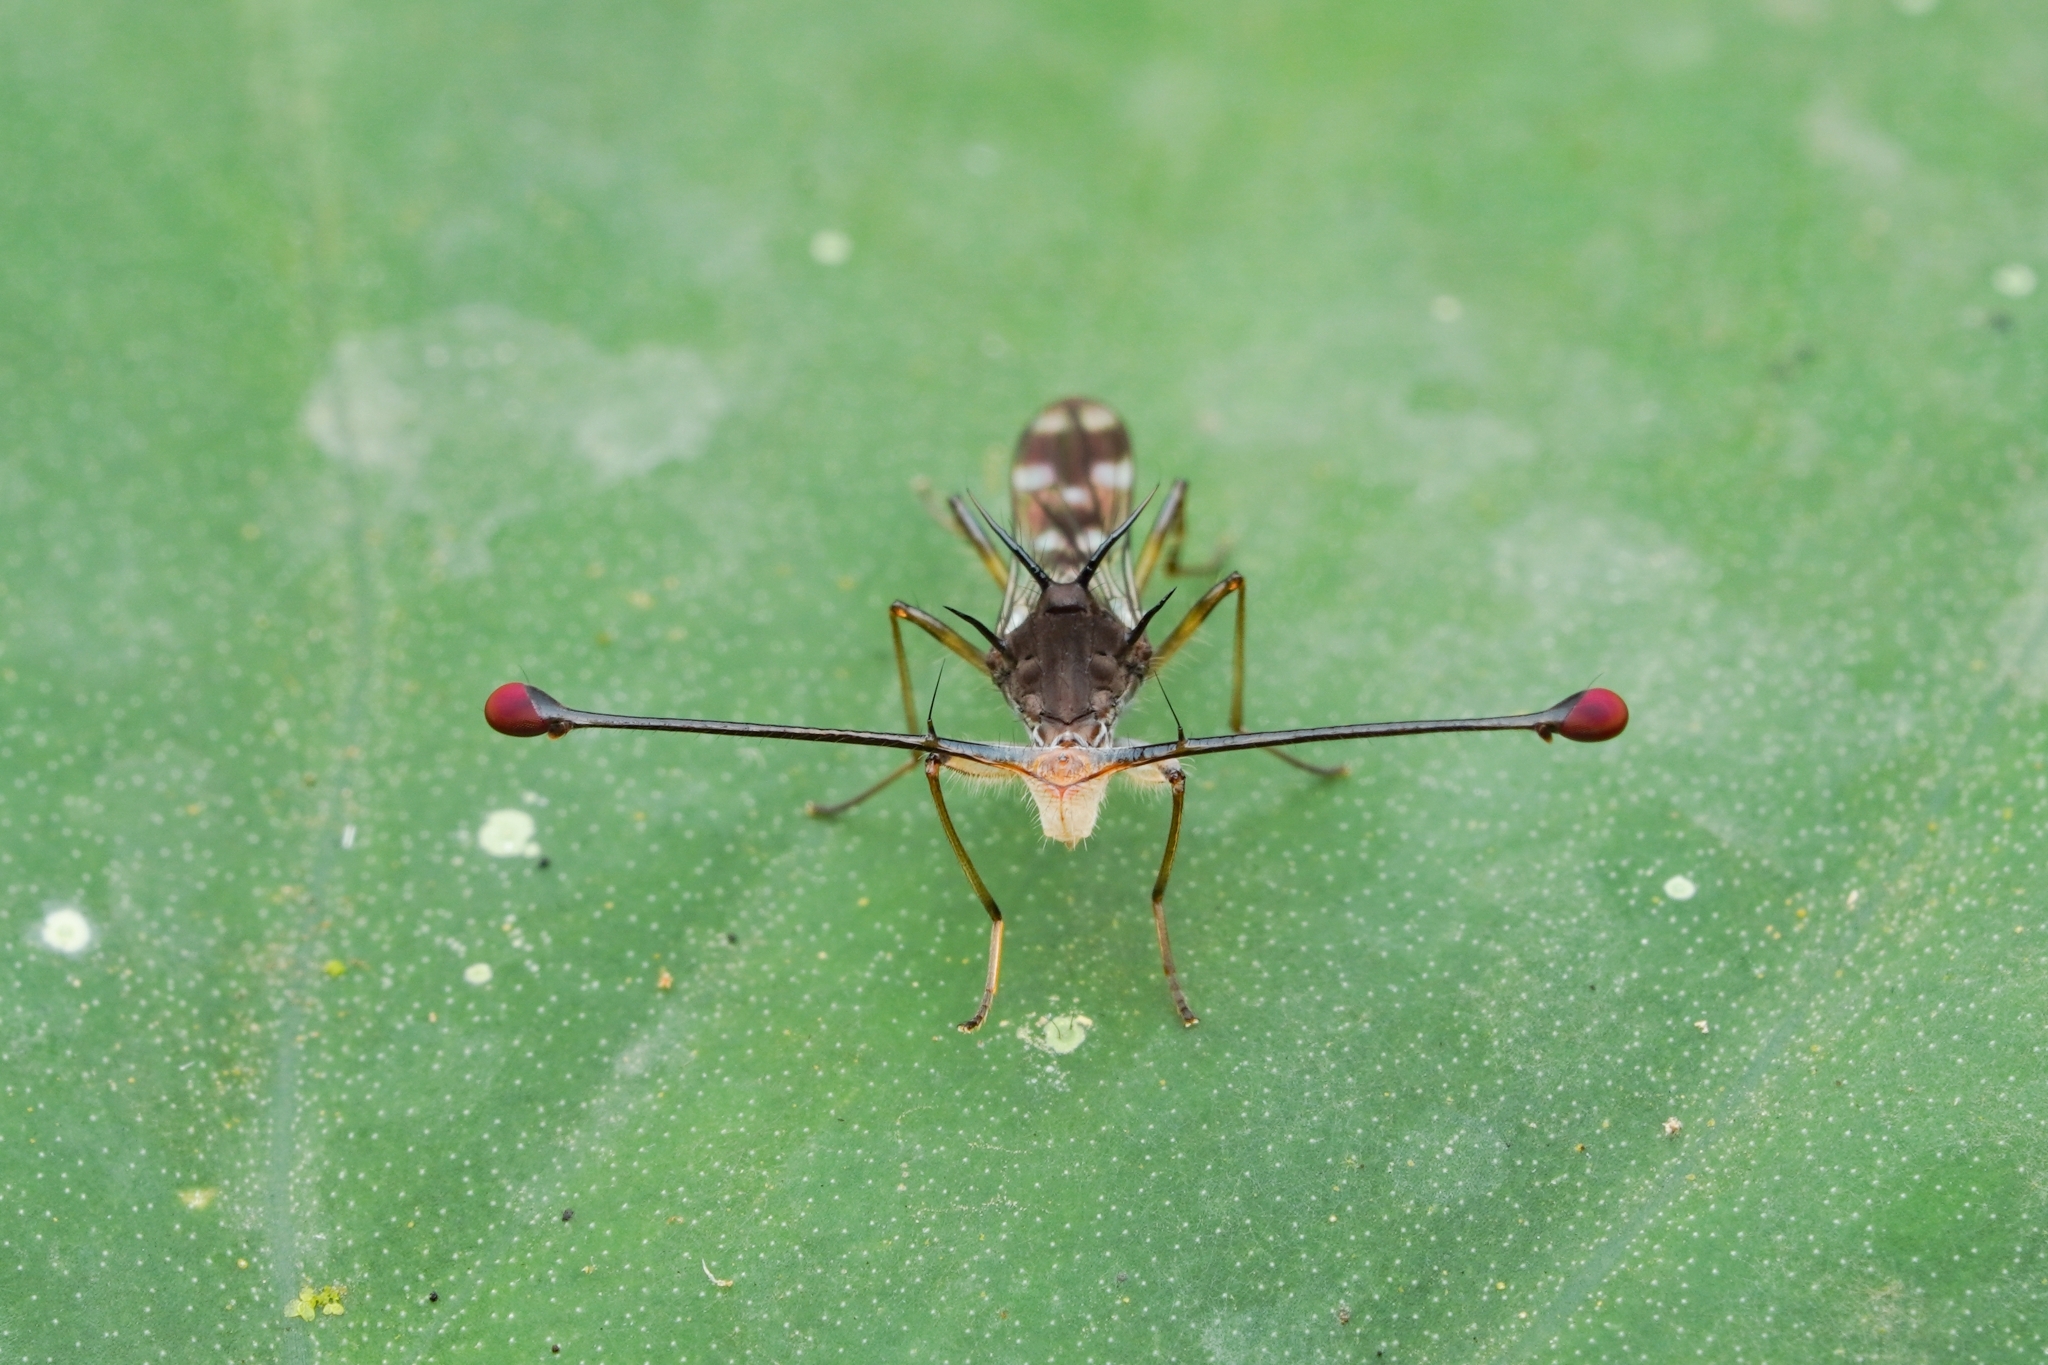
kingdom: Animalia
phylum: Arthropoda
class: Insecta
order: Diptera
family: Diopsidae
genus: Teleopsis
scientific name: Teleopsis pallifacies
